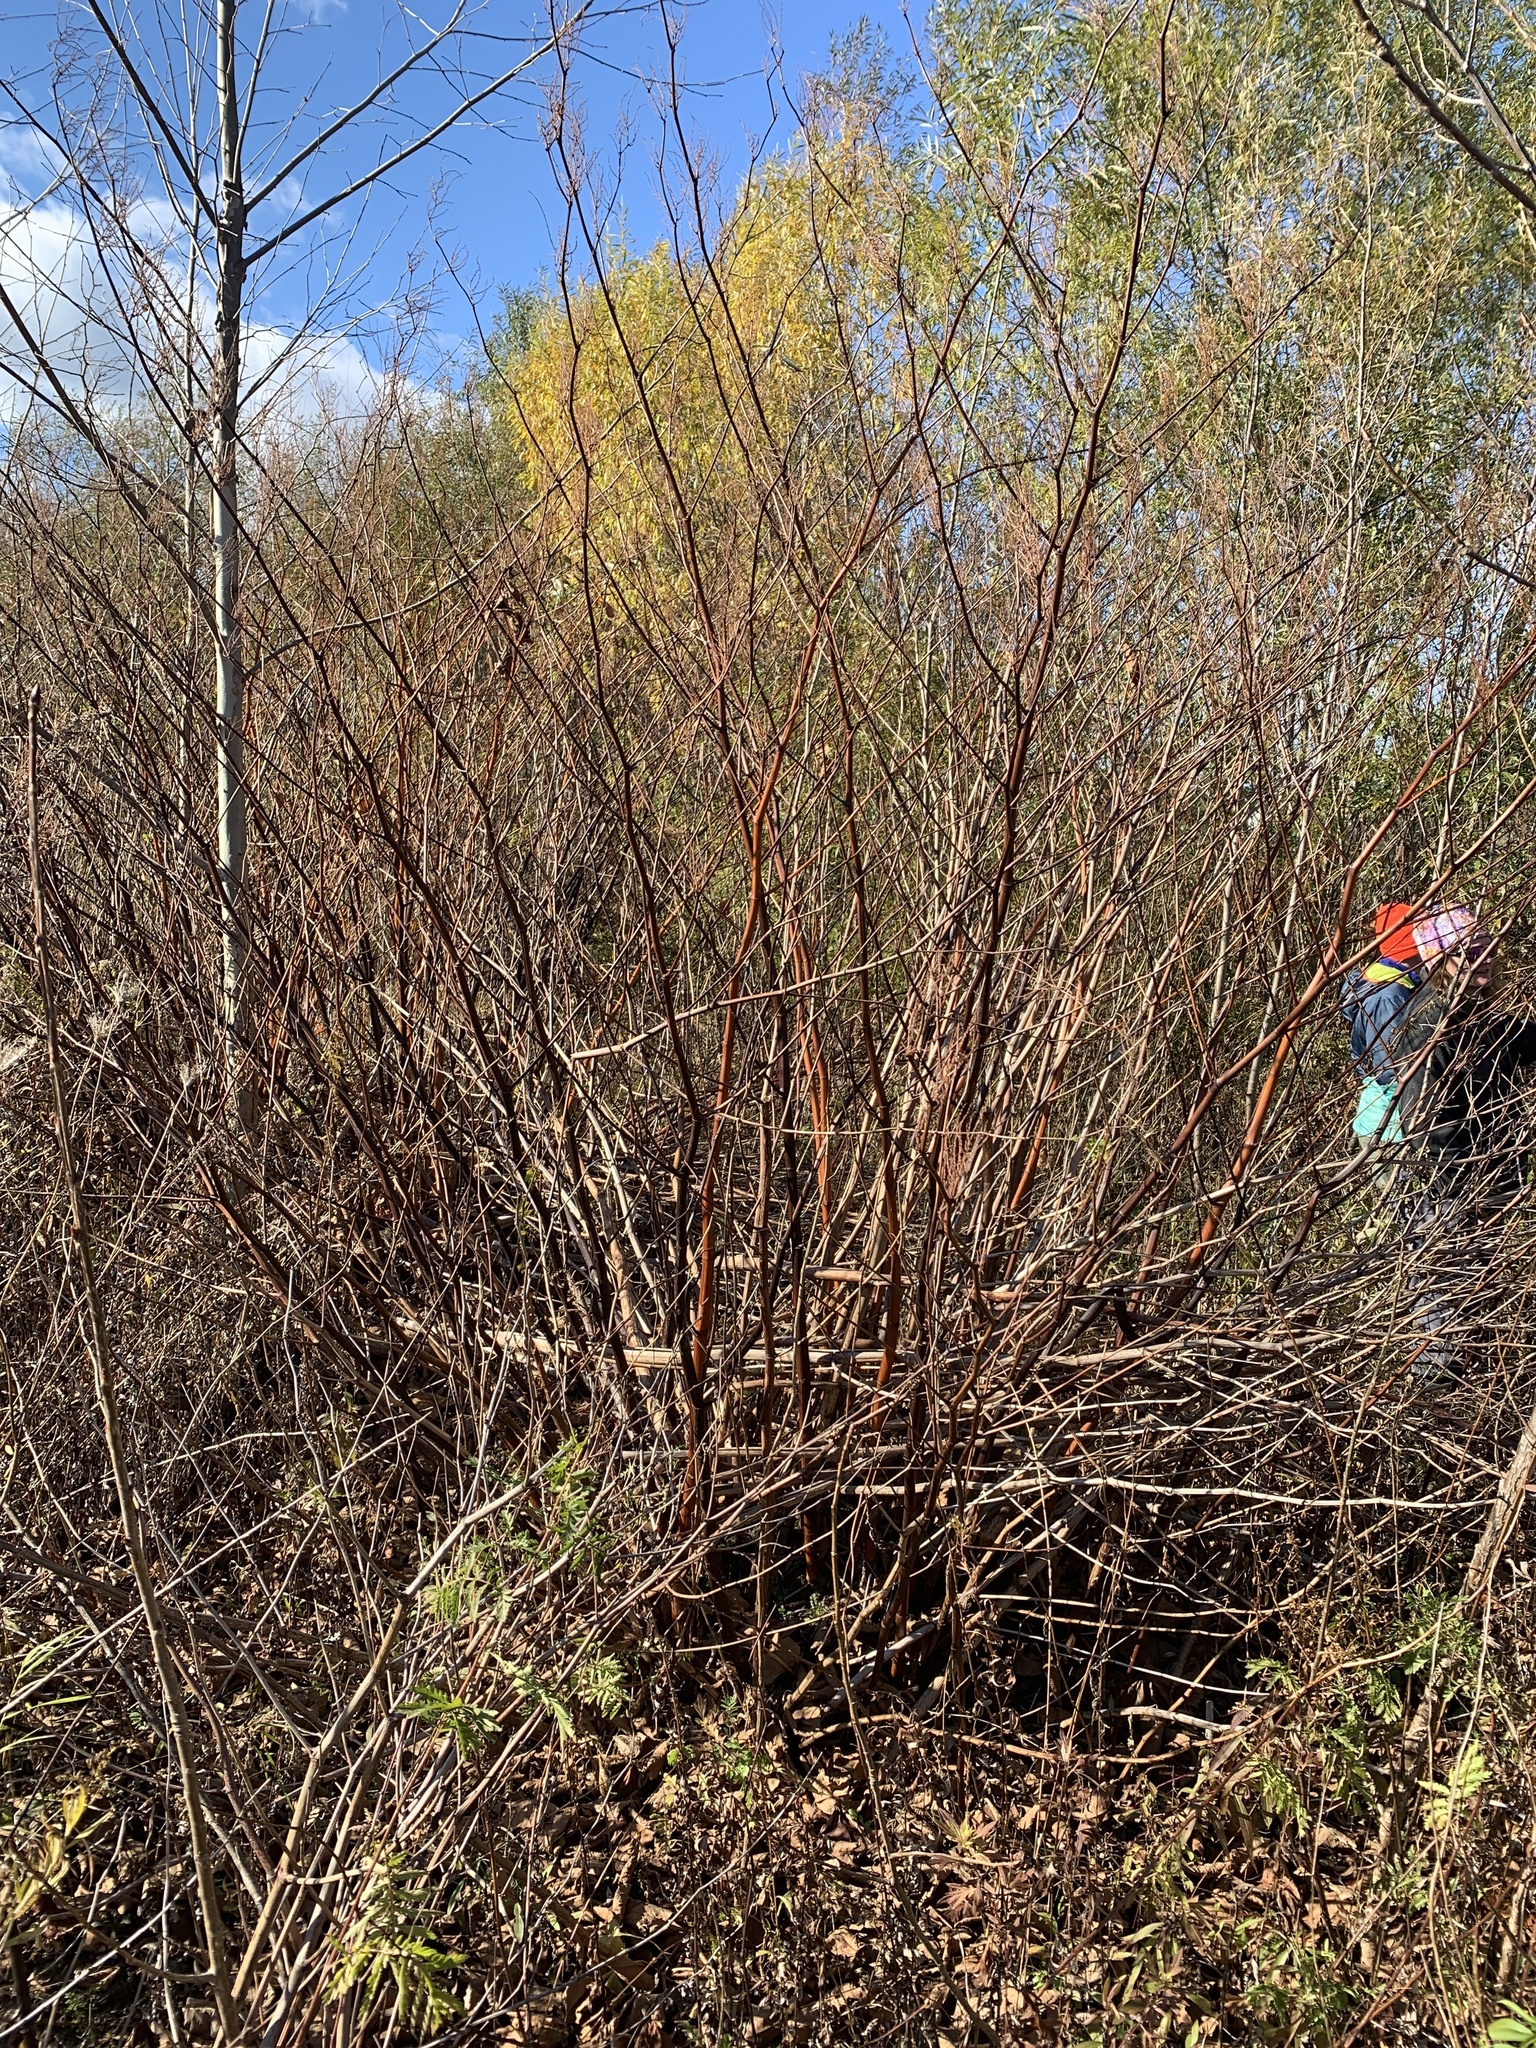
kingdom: Plantae
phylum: Tracheophyta
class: Magnoliopsida
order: Caryophyllales
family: Polygonaceae
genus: Reynoutria
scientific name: Reynoutria japonica
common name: Japanese knotweed
